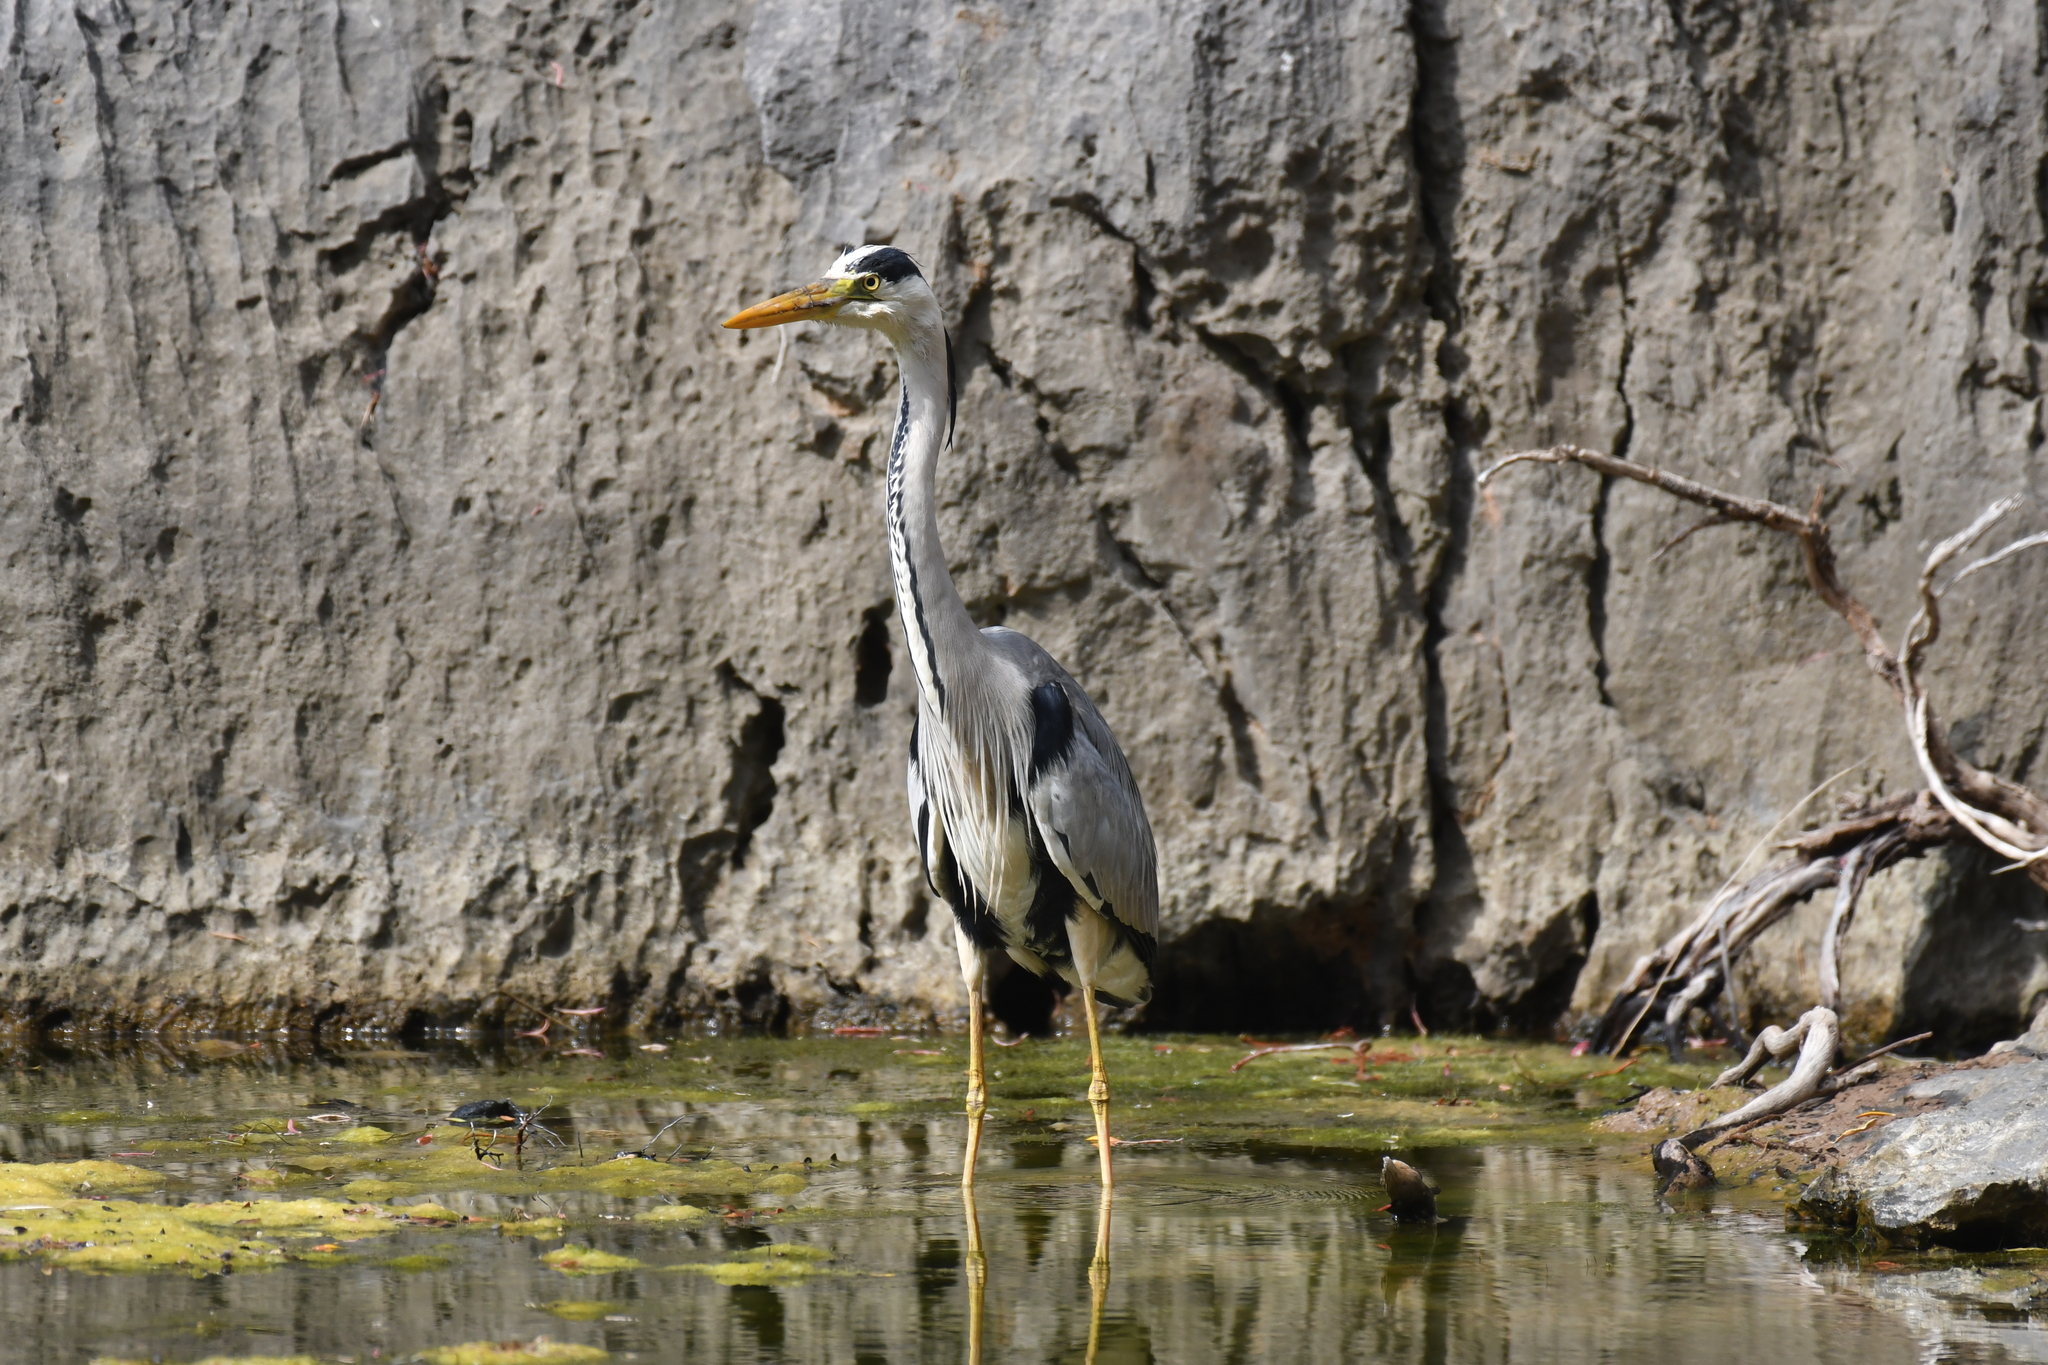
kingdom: Animalia
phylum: Chordata
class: Aves
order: Pelecaniformes
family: Ardeidae
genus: Ardea
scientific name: Ardea cinerea
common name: Grey heron
